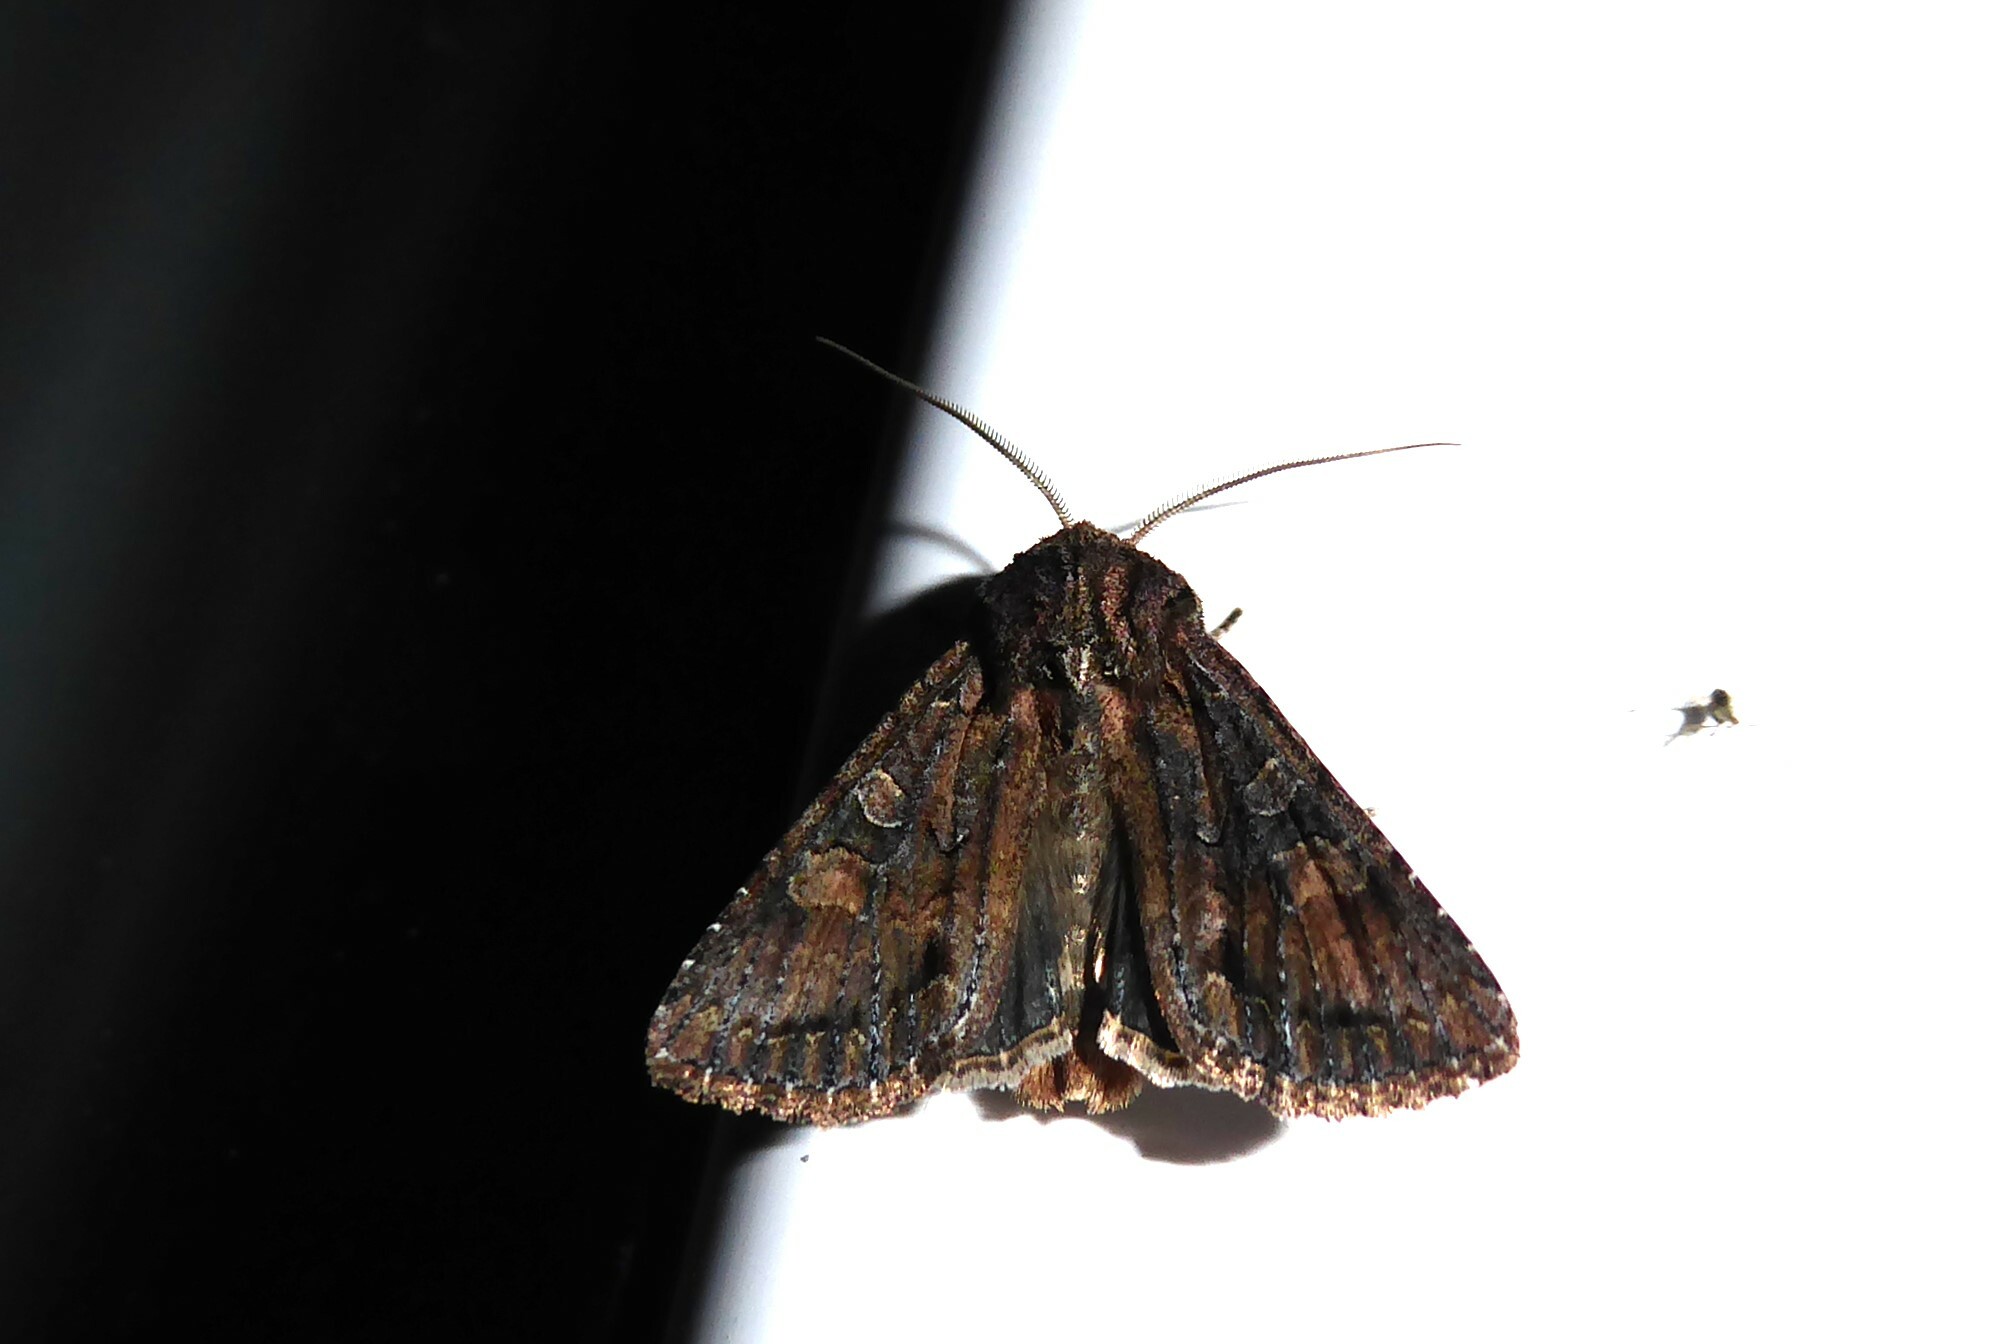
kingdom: Animalia
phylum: Arthropoda
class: Insecta
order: Lepidoptera
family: Noctuidae
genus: Ichneutica
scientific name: Ichneutica mutans
